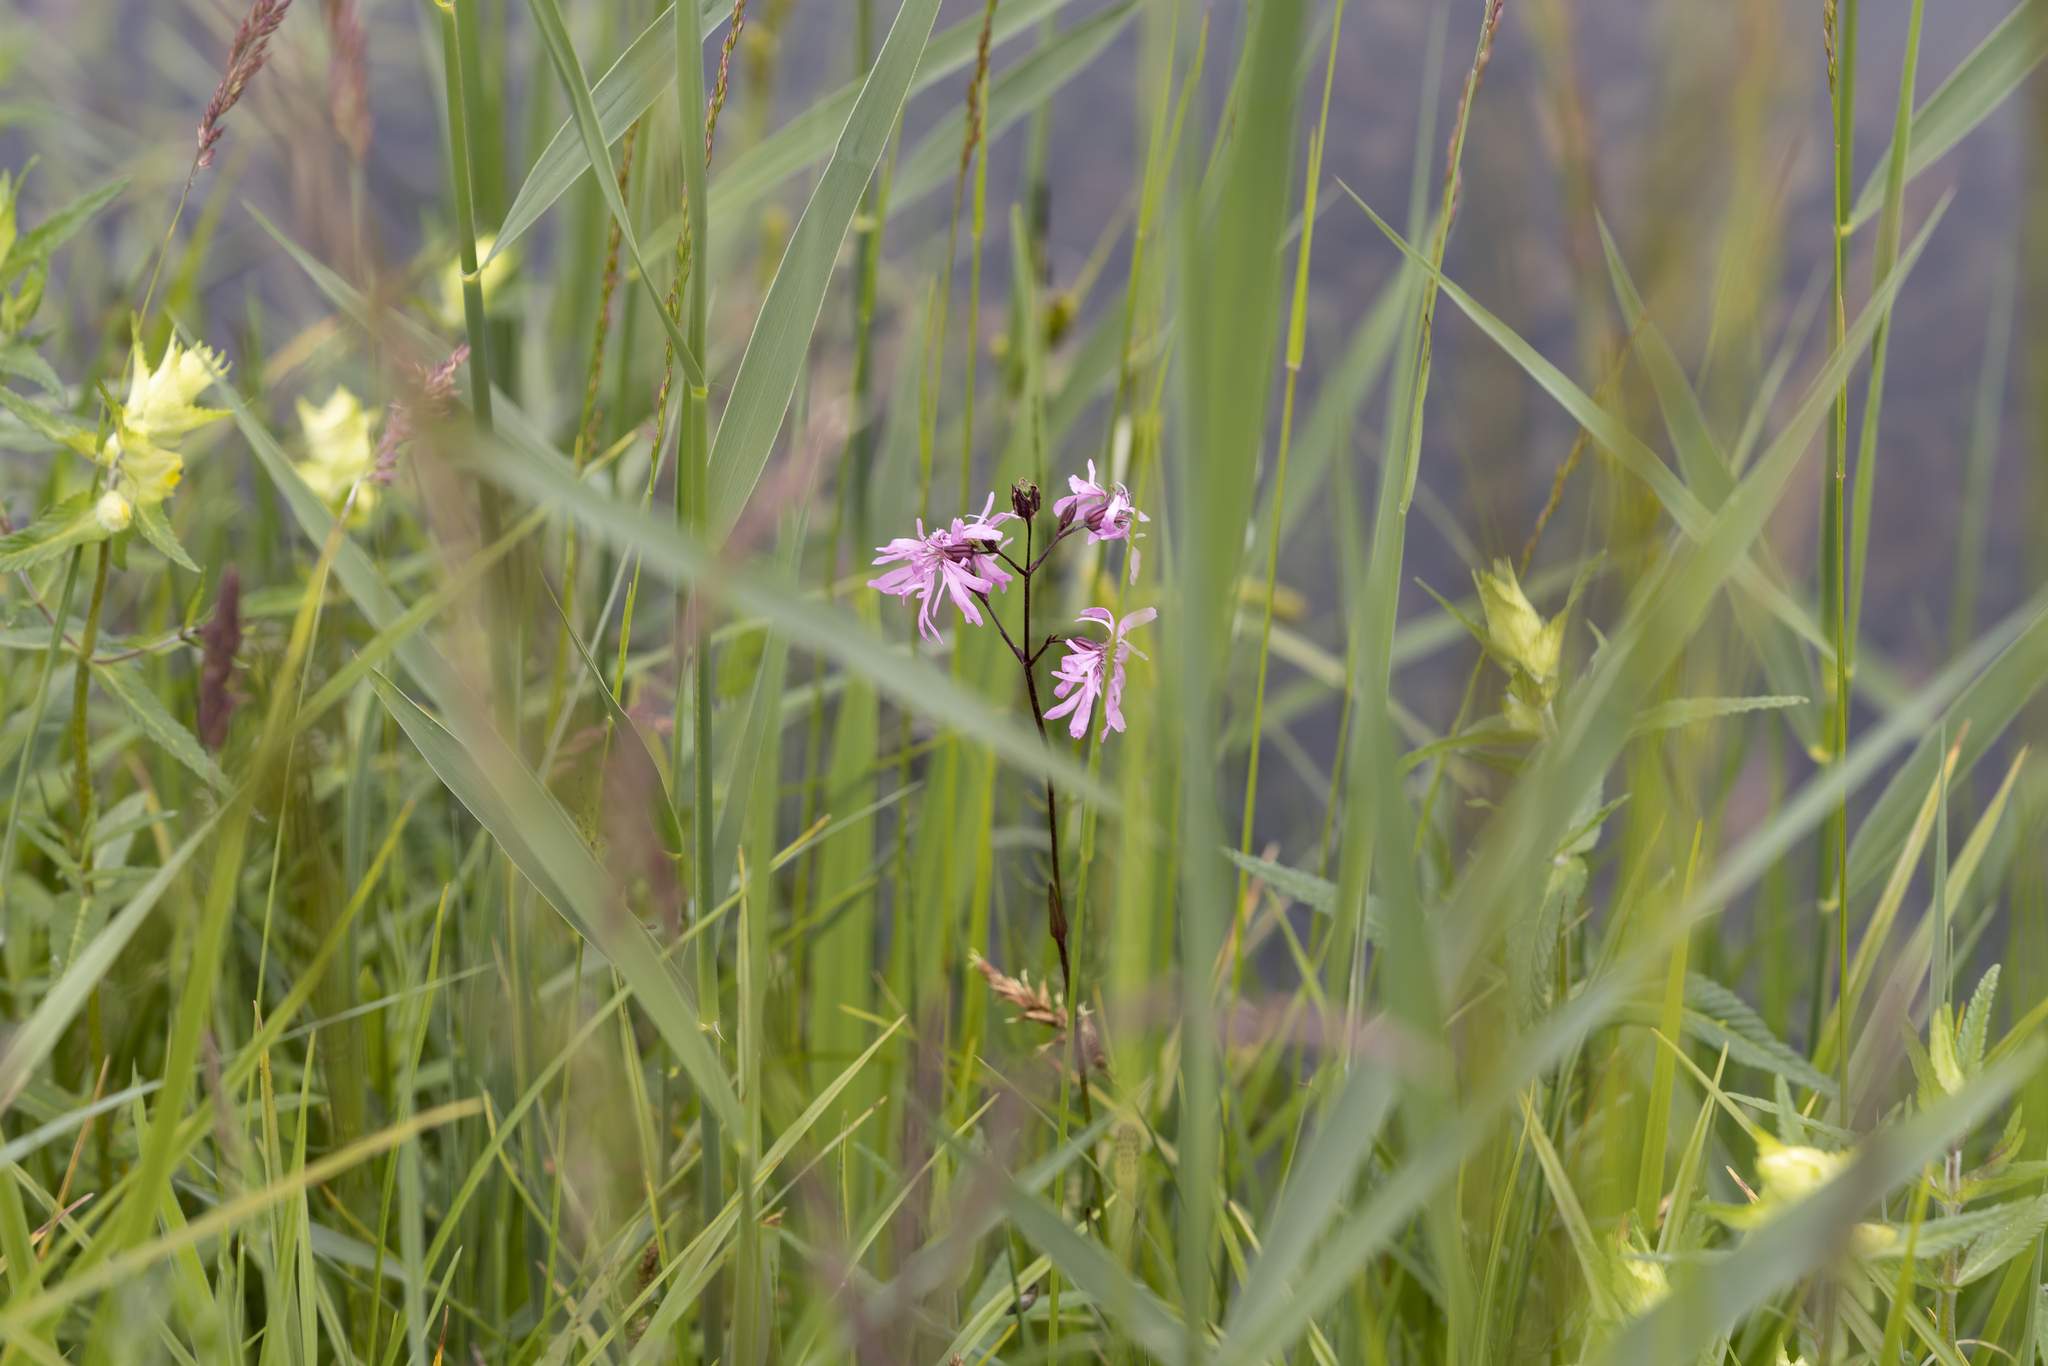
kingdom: Plantae
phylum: Tracheophyta
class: Magnoliopsida
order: Caryophyllales
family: Caryophyllaceae
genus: Silene
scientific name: Silene flos-cuculi
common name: Ragged-robin
